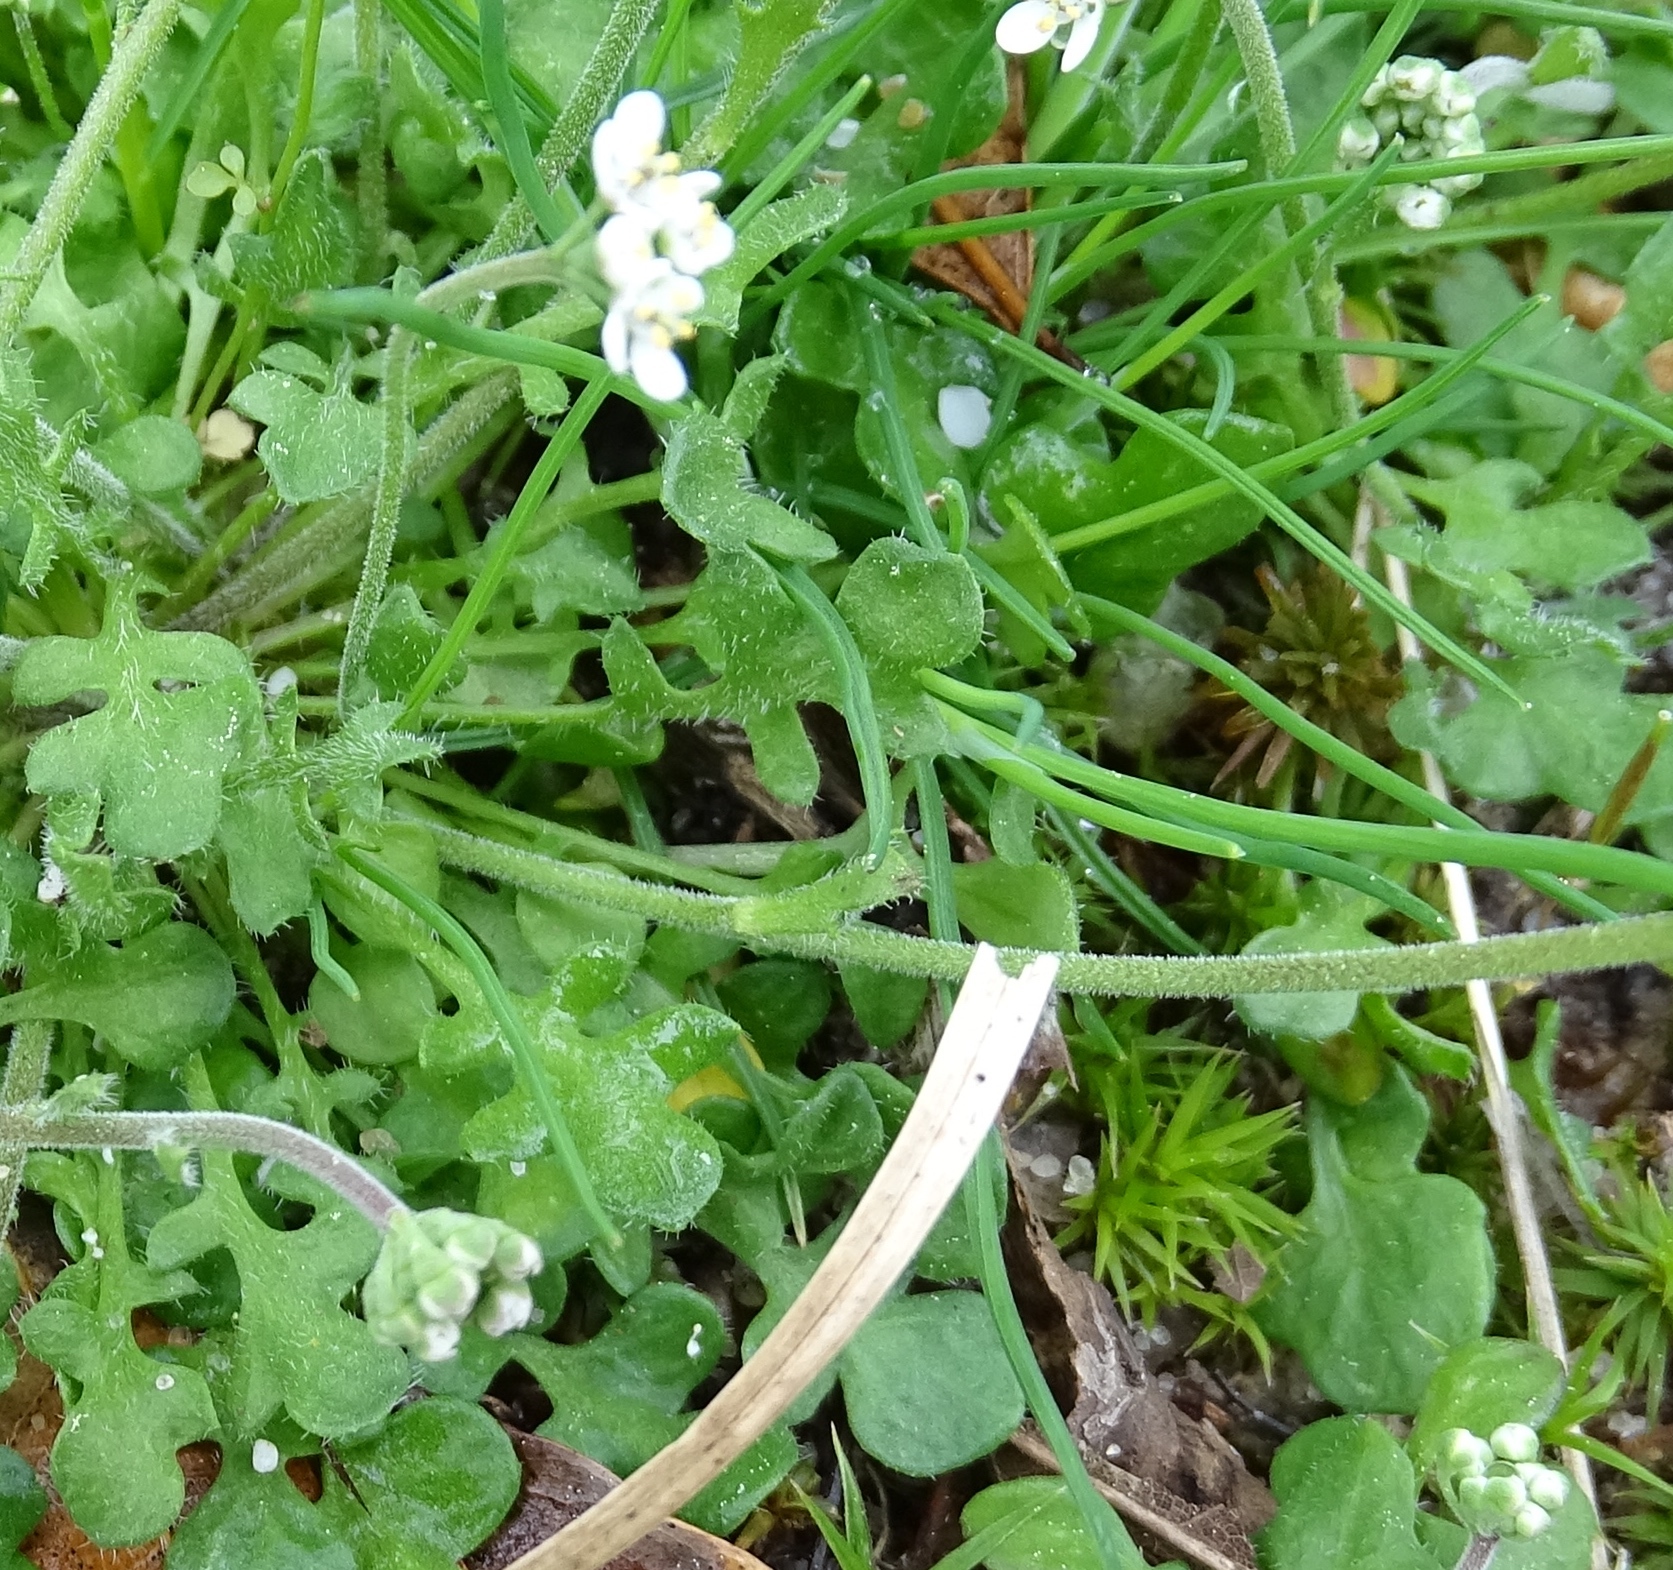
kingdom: Plantae
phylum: Tracheophyta
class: Magnoliopsida
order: Brassicales
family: Brassicaceae
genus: Teesdalia
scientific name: Teesdalia nudicaulis
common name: Shepherd's cress
